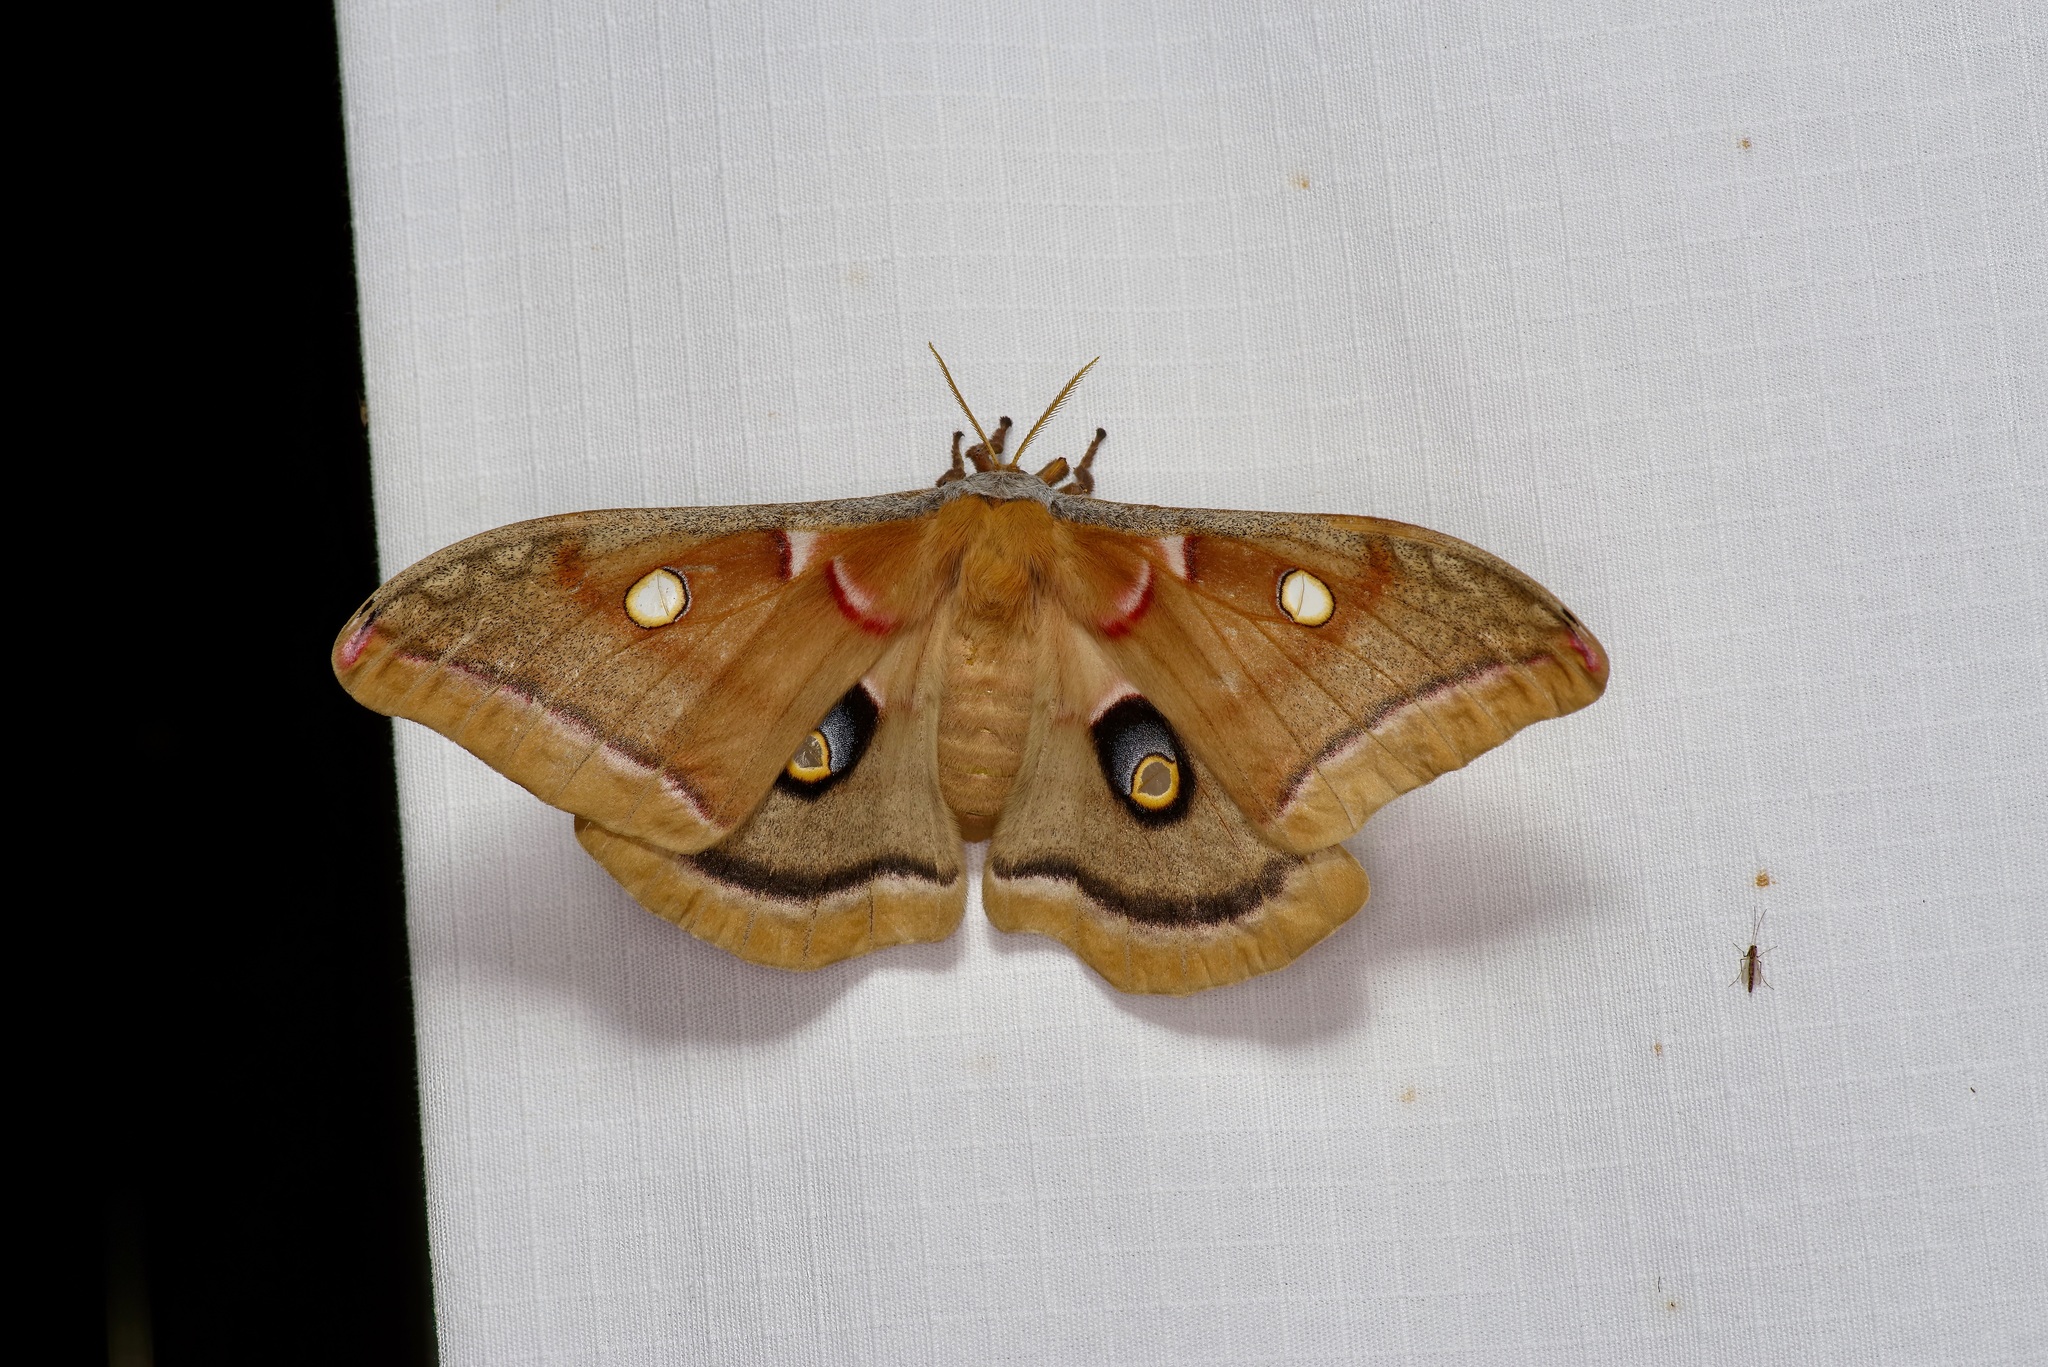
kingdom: Animalia
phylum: Arthropoda
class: Insecta
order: Lepidoptera
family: Saturniidae
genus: Antheraea
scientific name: Antheraea polyphemus
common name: Polyphemus moth
